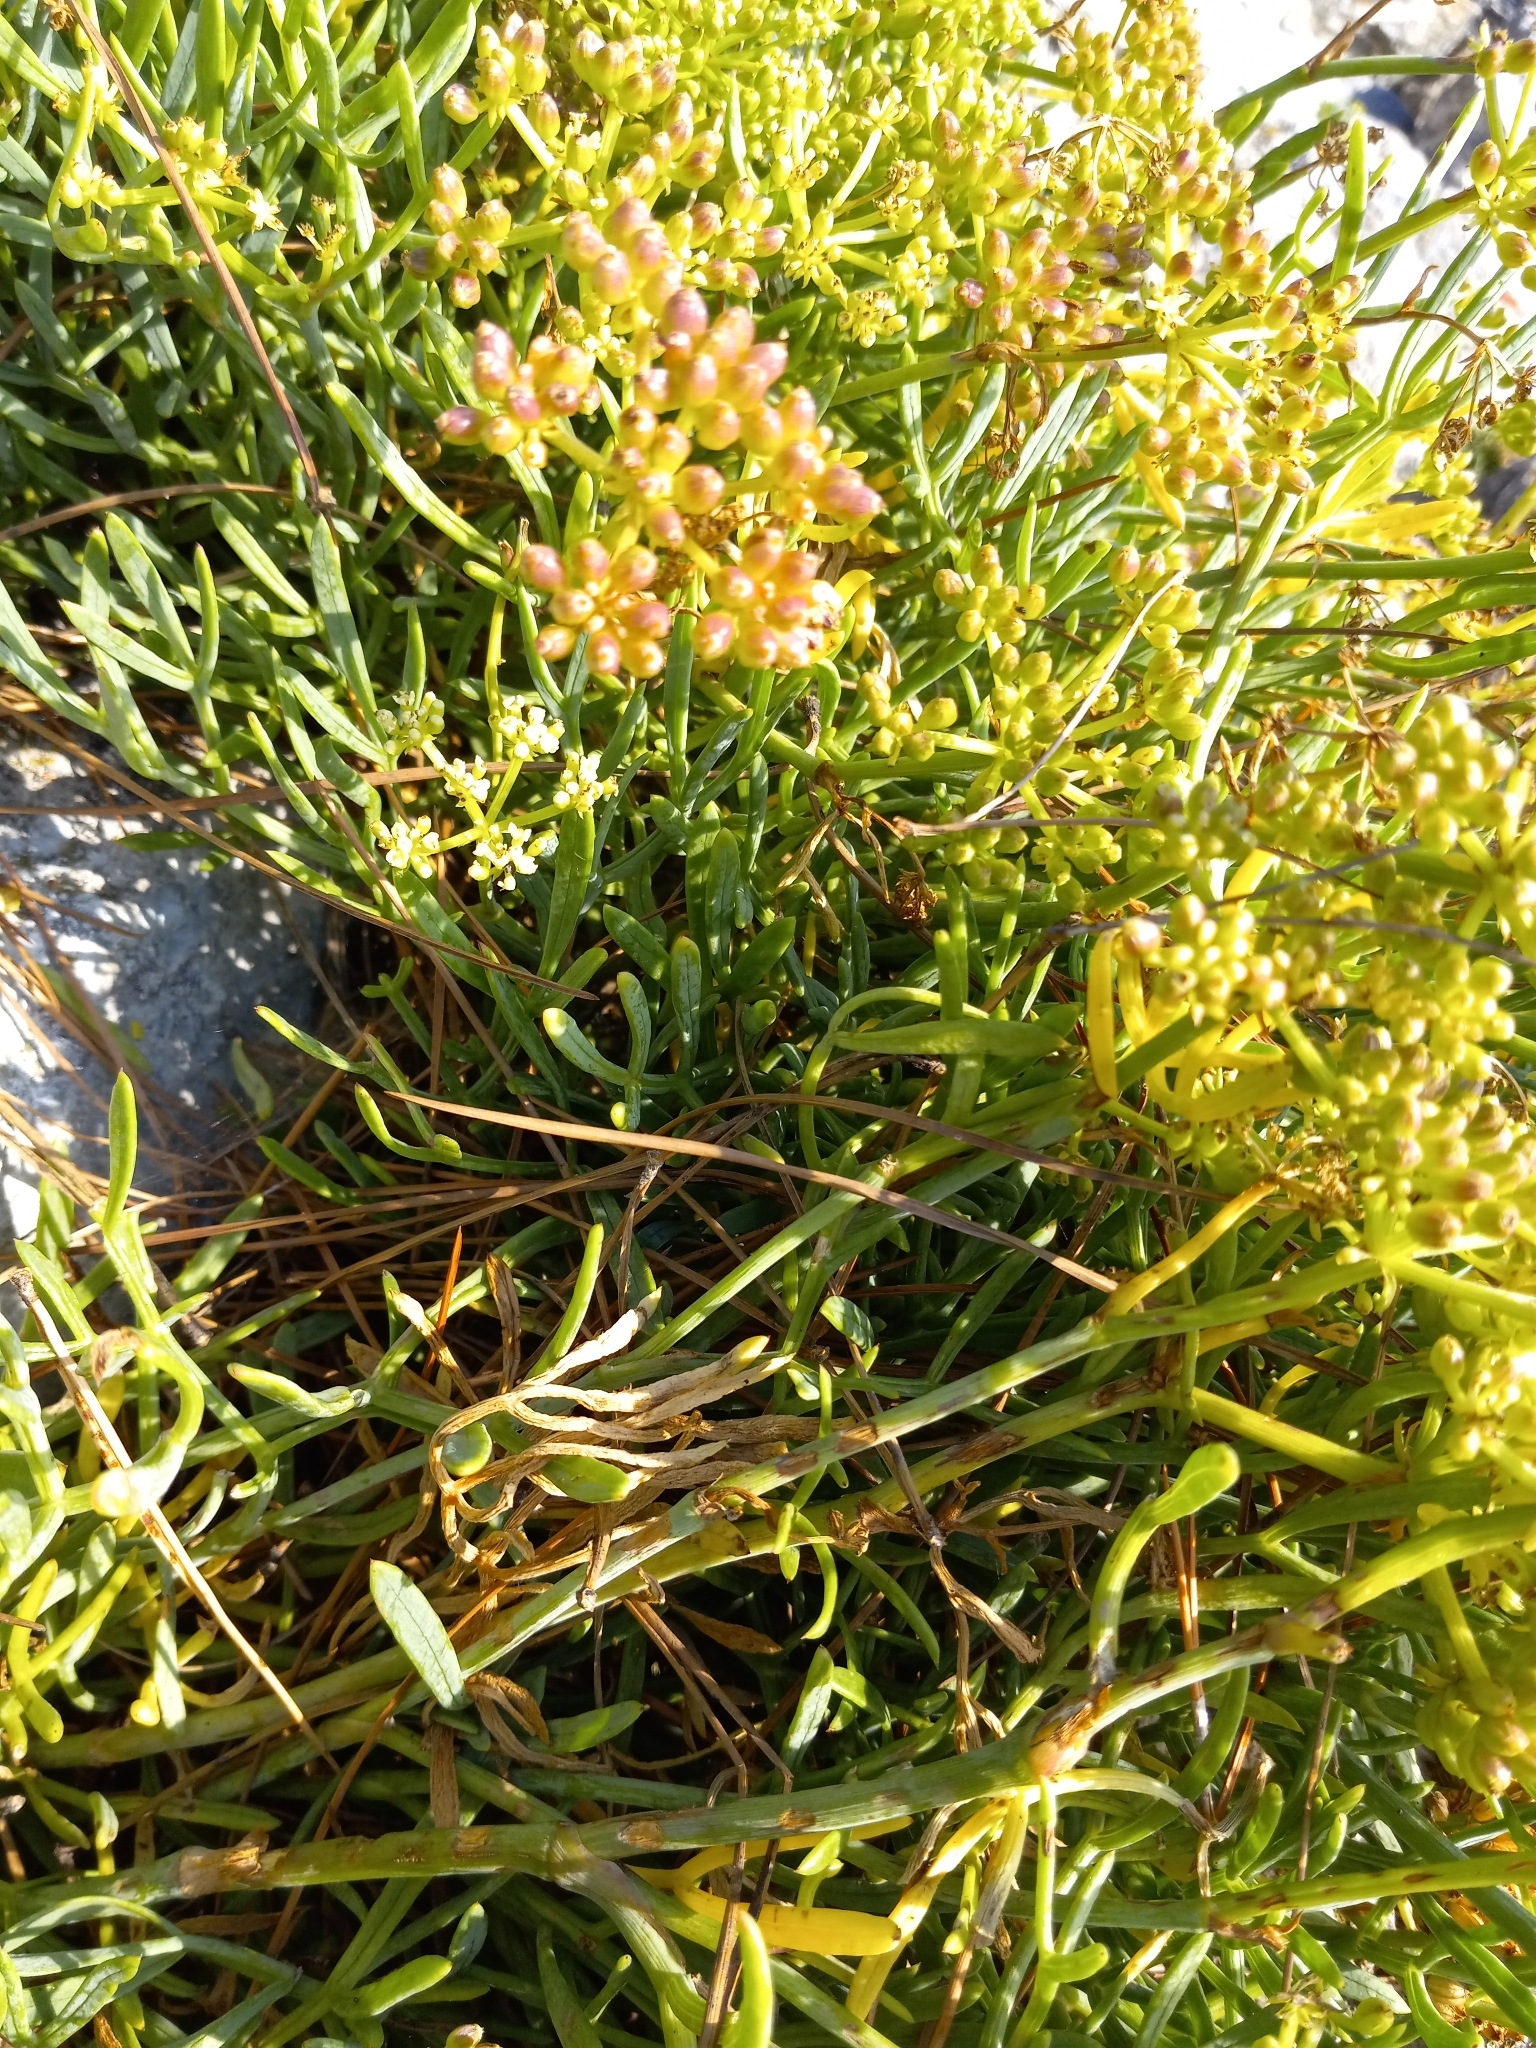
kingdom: Plantae
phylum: Tracheophyta
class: Magnoliopsida
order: Apiales
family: Apiaceae
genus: Crithmum
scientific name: Crithmum maritimum
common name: Rock samphire
